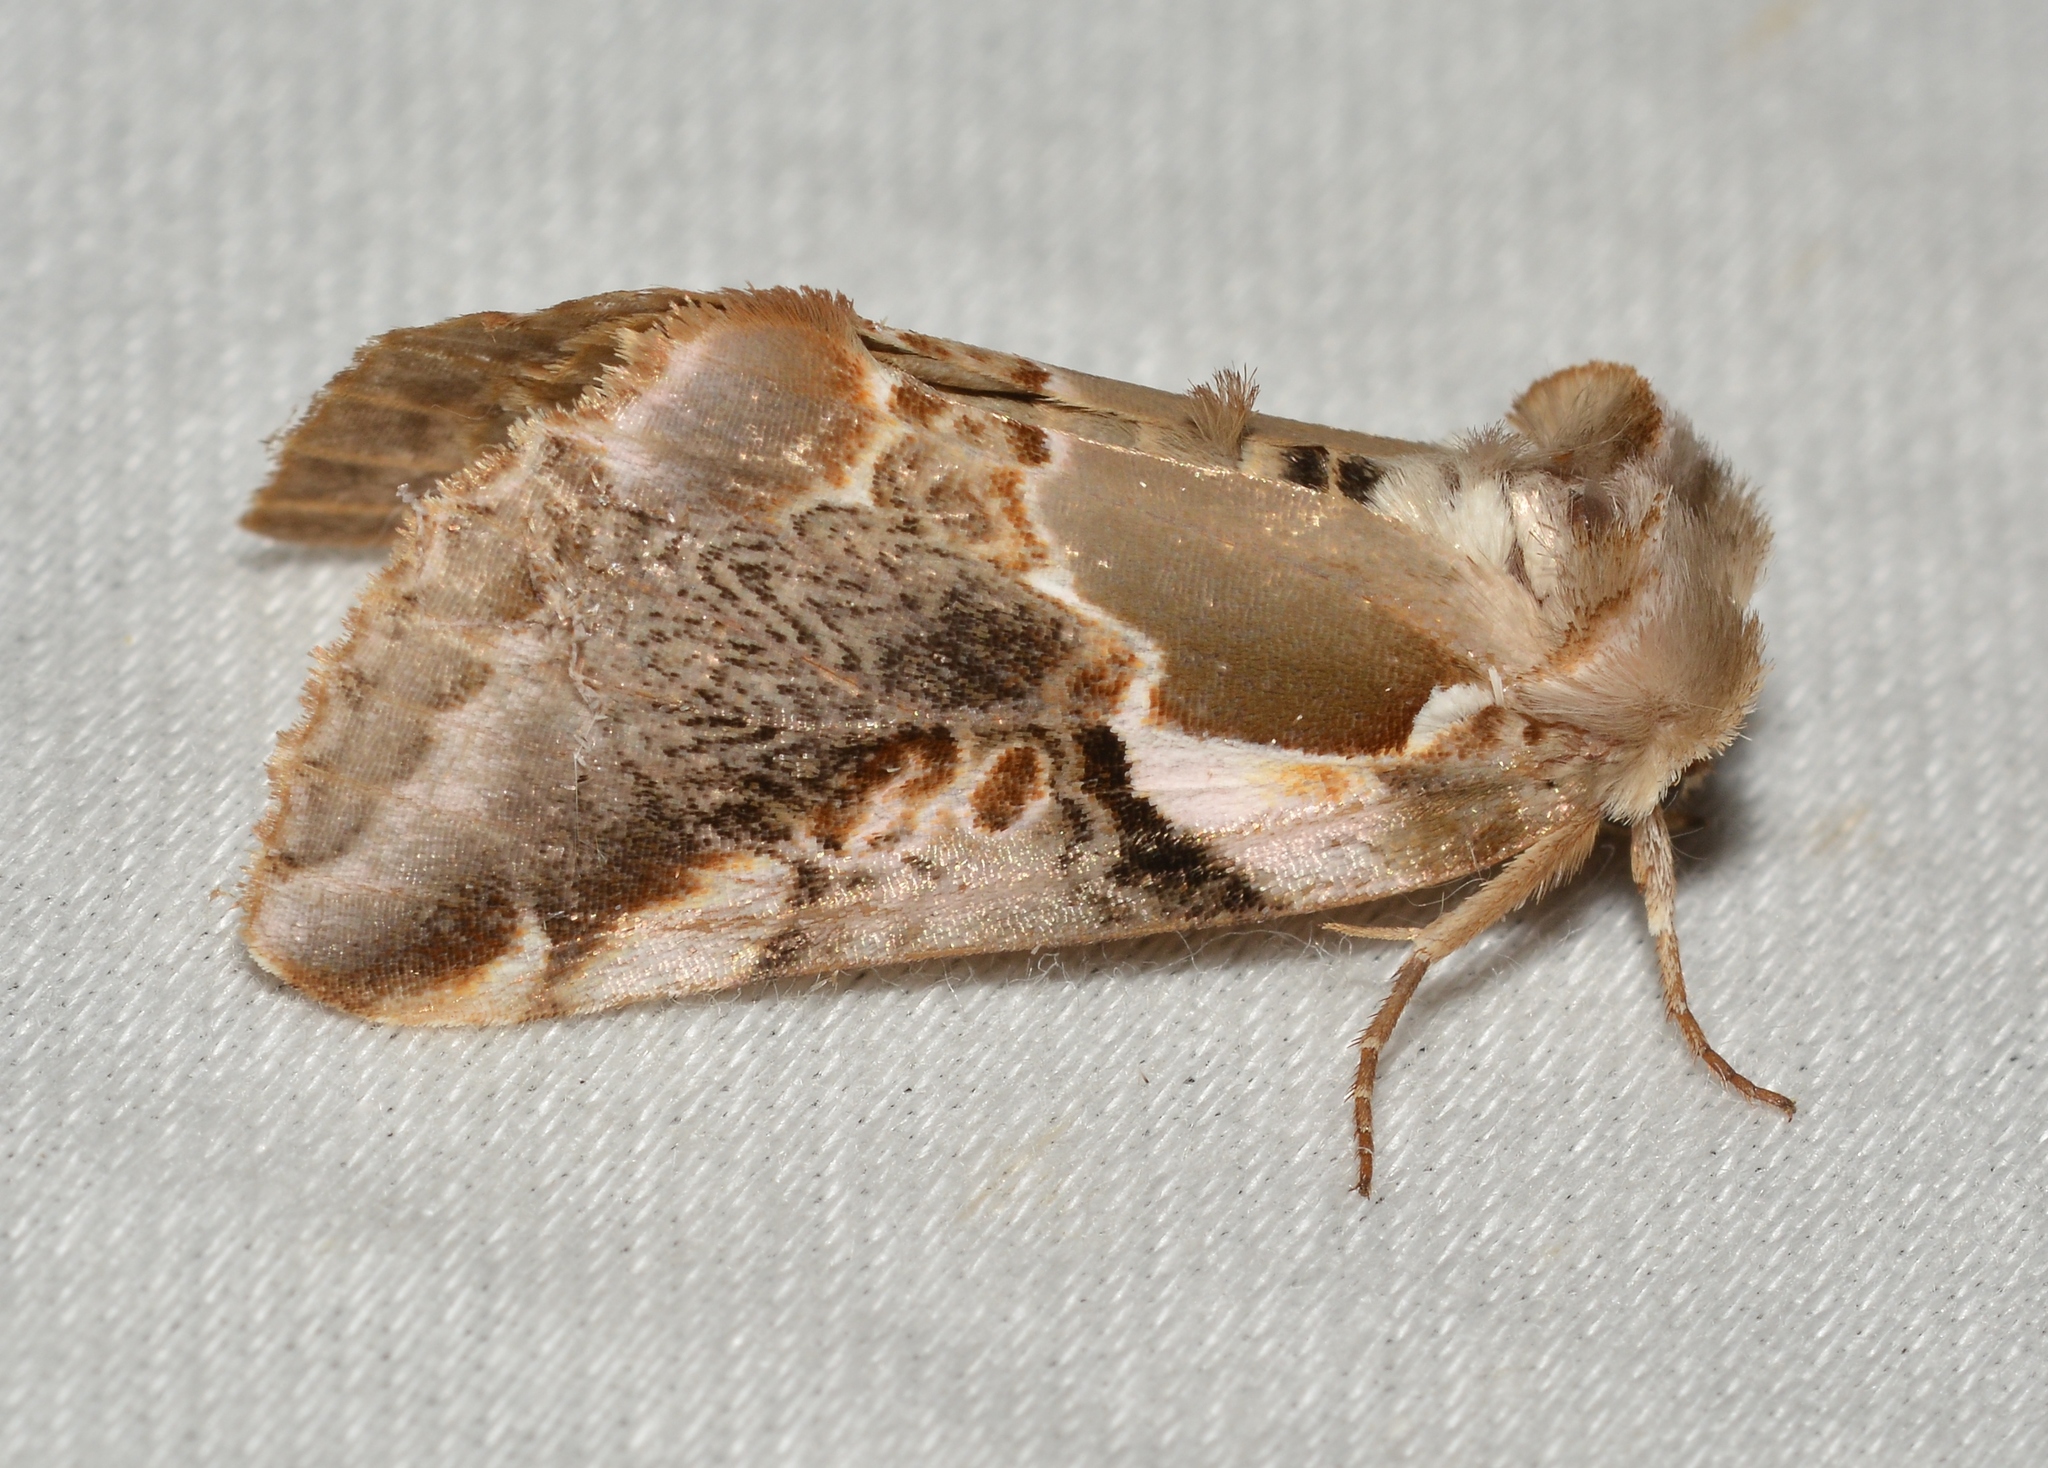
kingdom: Animalia
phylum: Arthropoda
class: Insecta
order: Lepidoptera
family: Drepanidae
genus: Habrosyne
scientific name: Habrosyne gloriosa
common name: Glorious habrosyne moth
